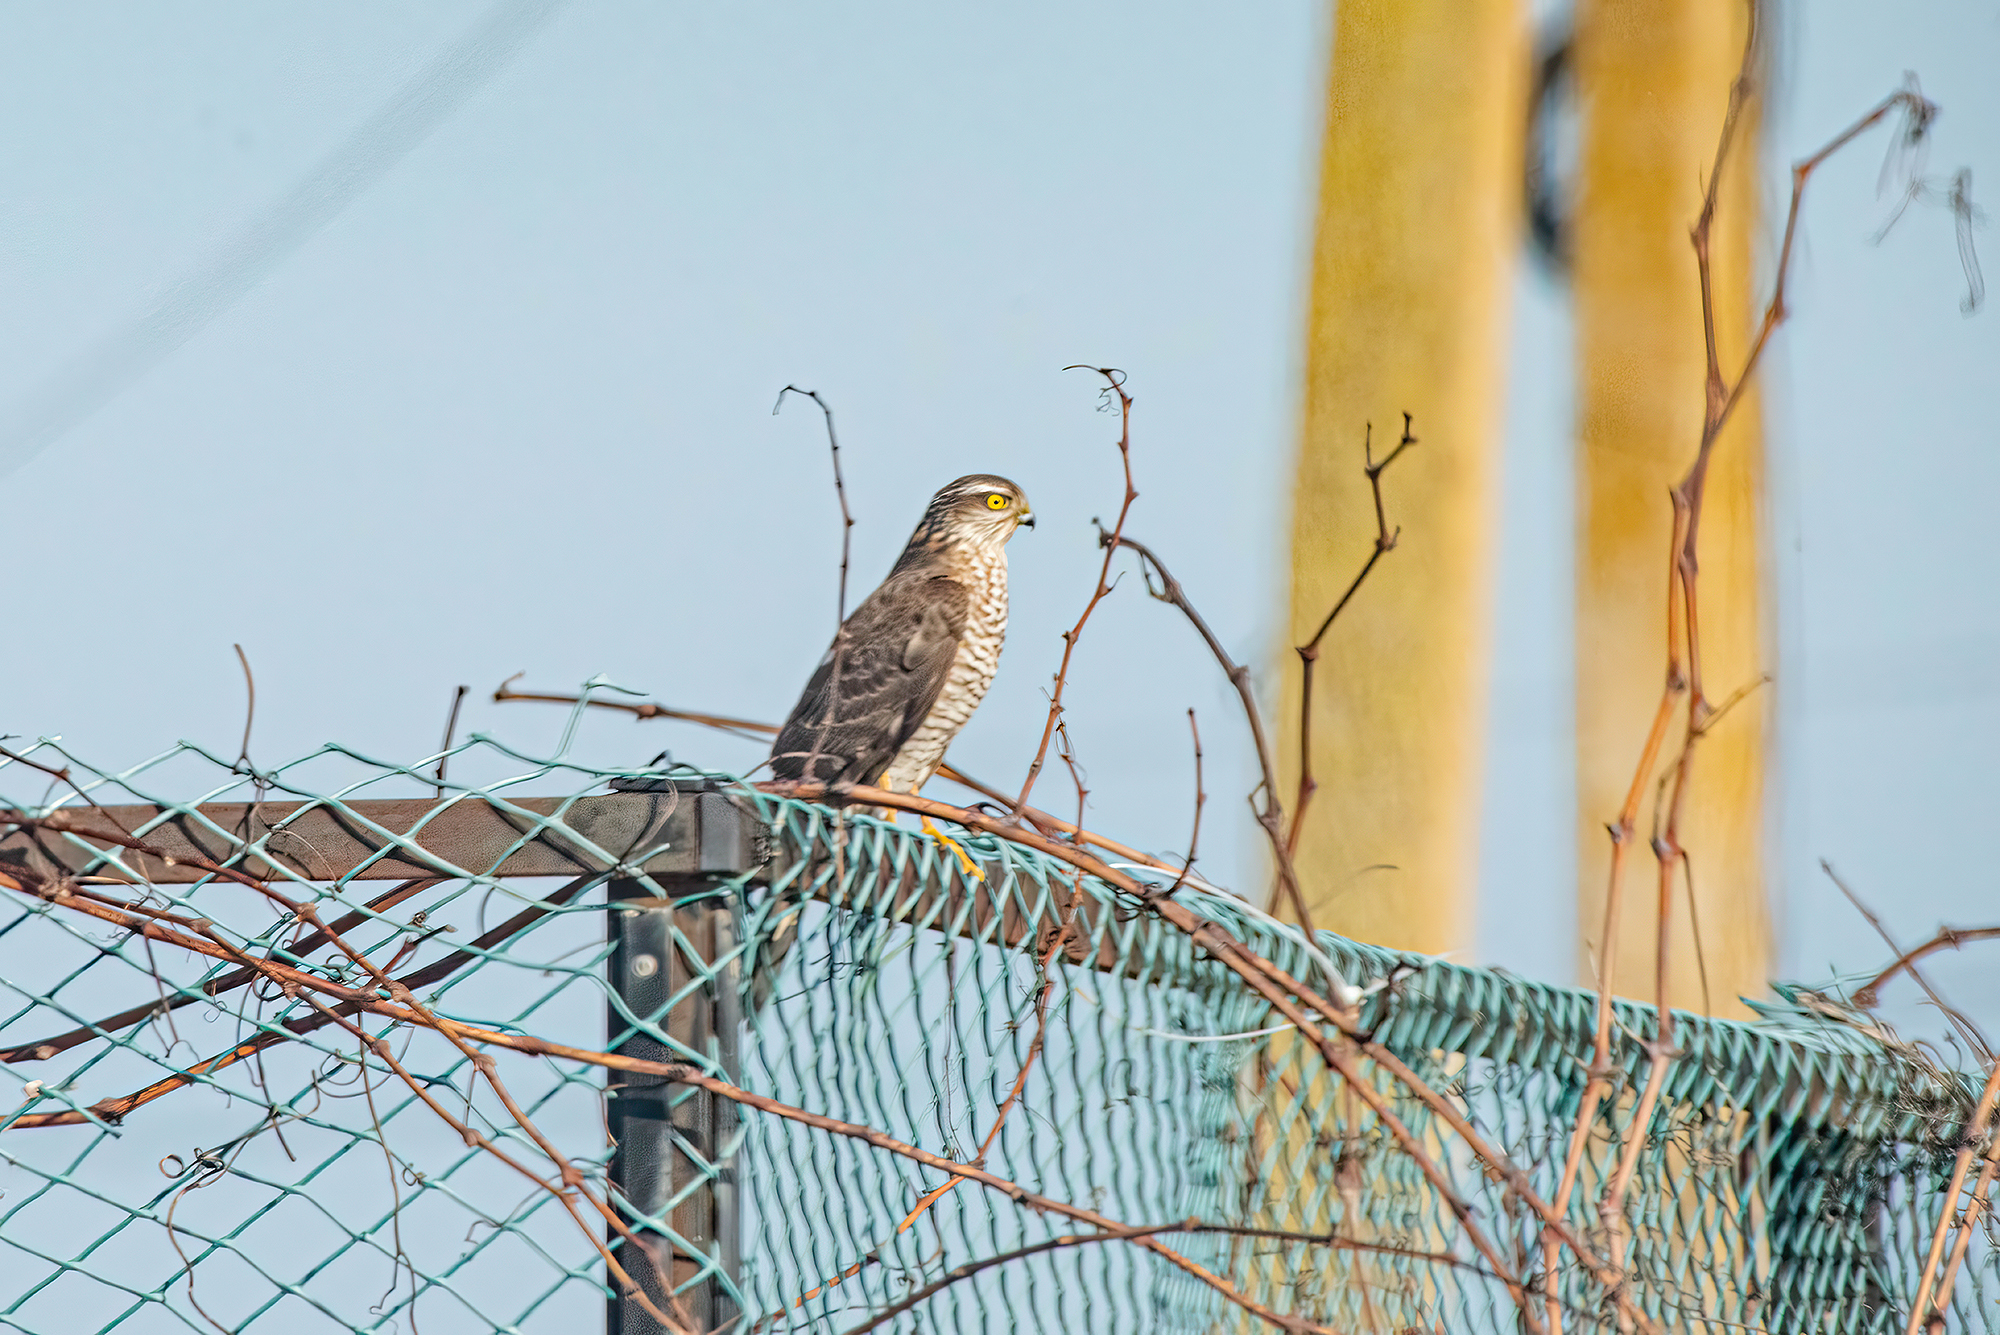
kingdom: Animalia
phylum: Chordata
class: Aves
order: Accipitriformes
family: Accipitridae
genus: Accipiter
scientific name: Accipiter nisus
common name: Eurasian sparrowhawk
